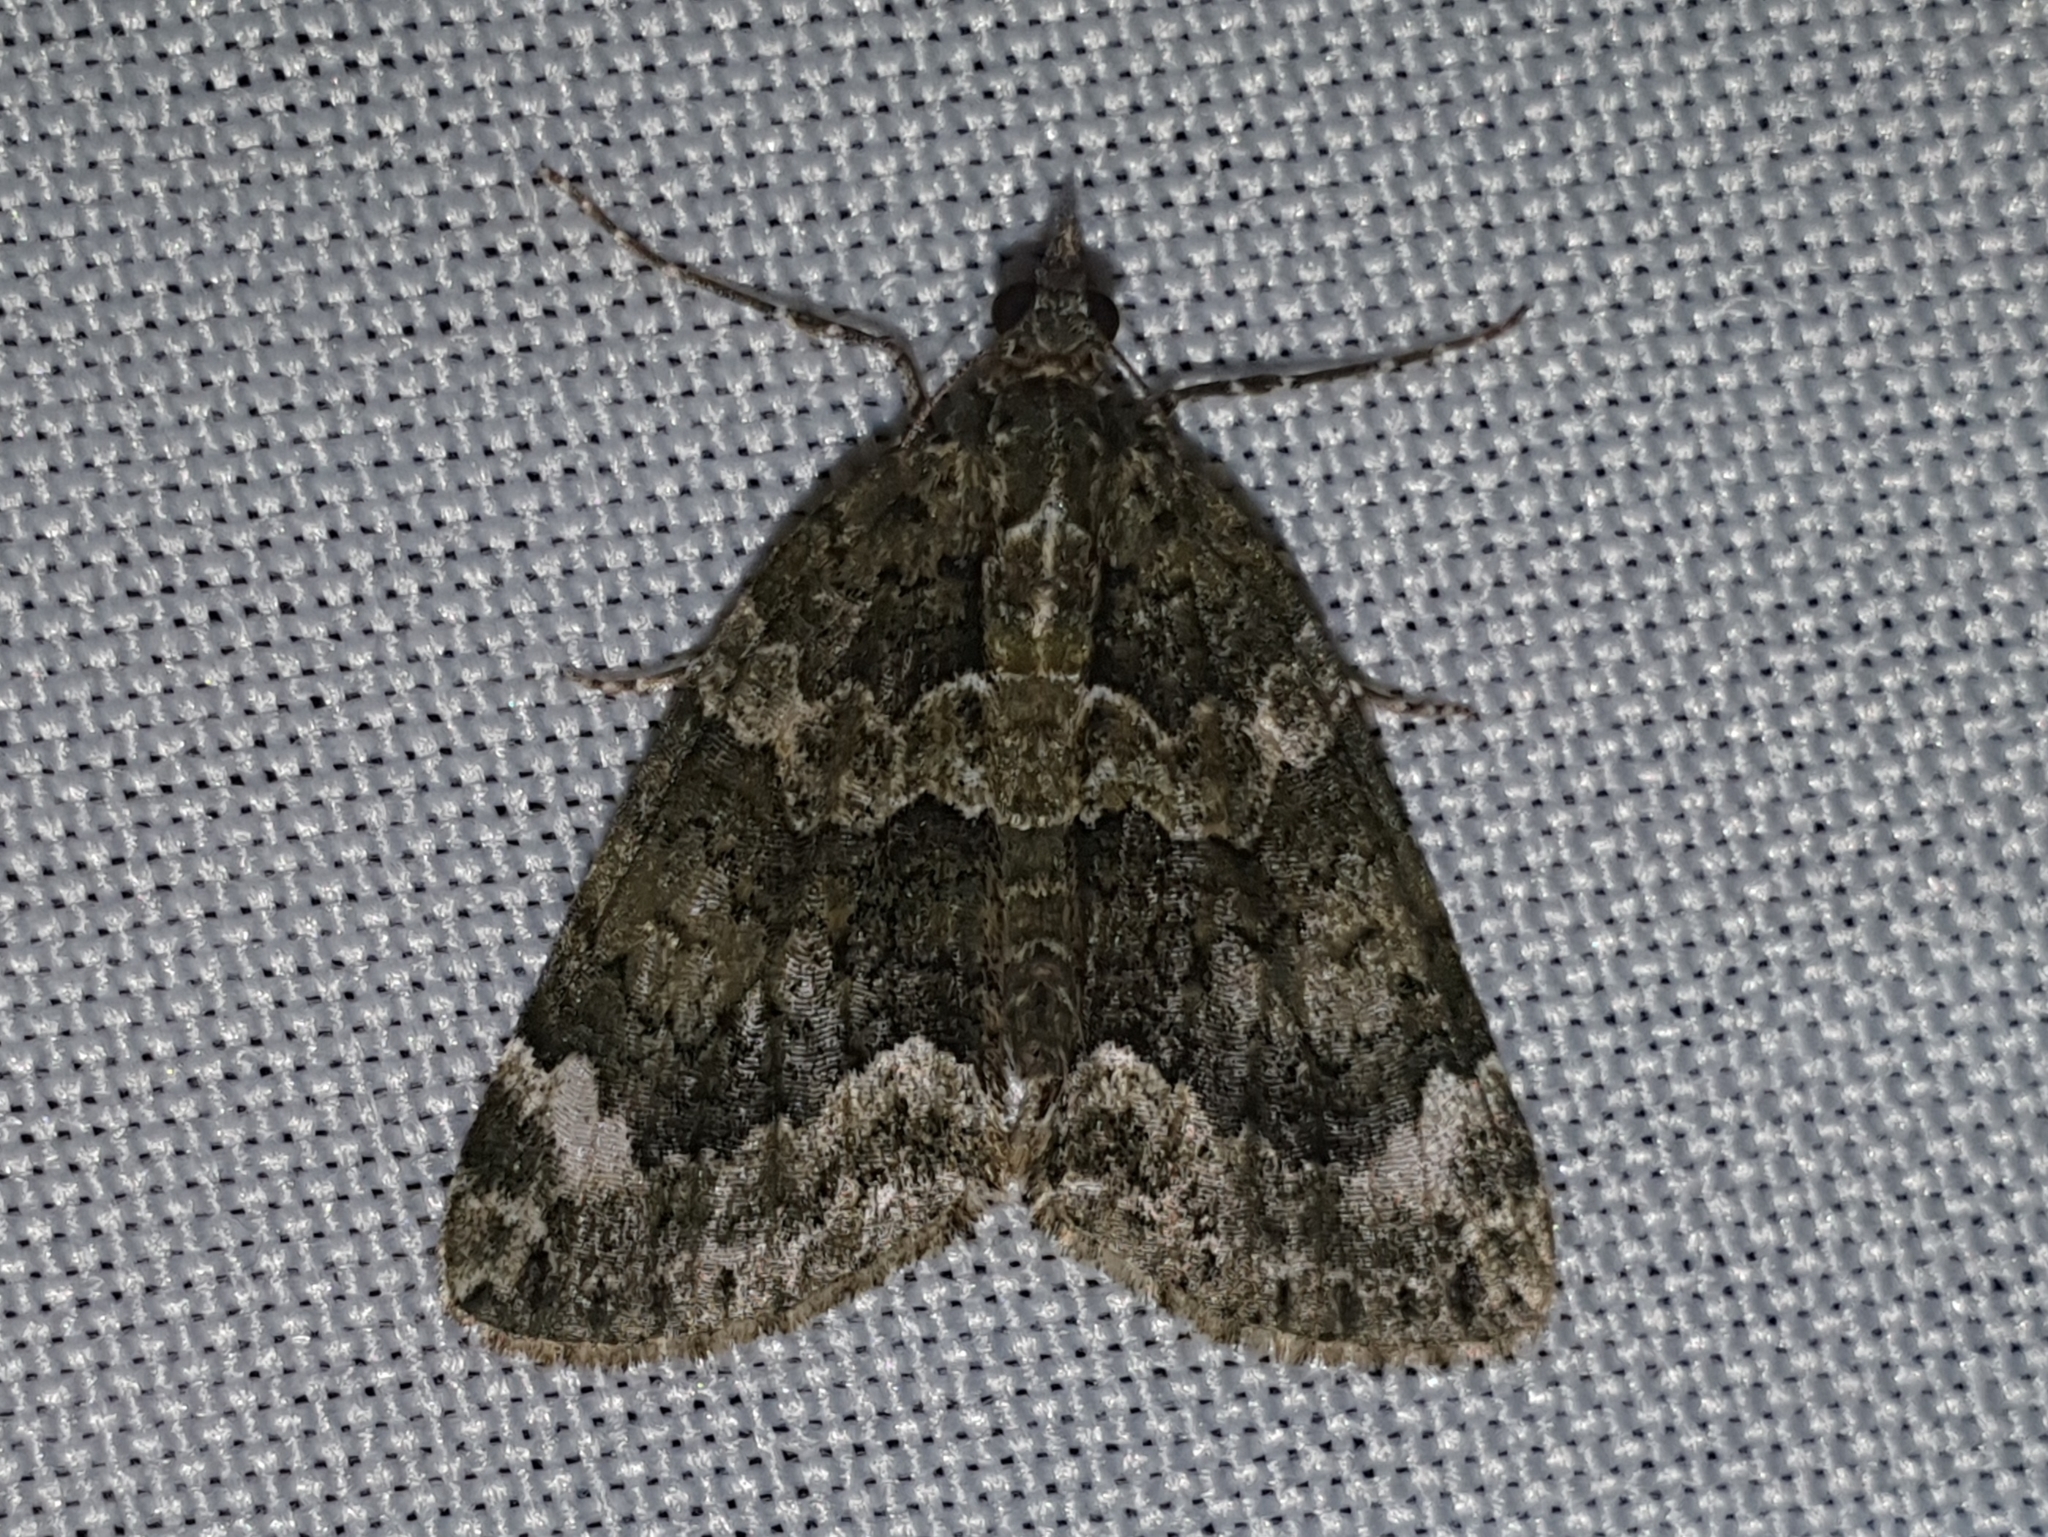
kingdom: Animalia
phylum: Arthropoda
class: Insecta
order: Lepidoptera
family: Geometridae
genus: Chloroclysta
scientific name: Chloroclysta siterata
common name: Red-green carpet
